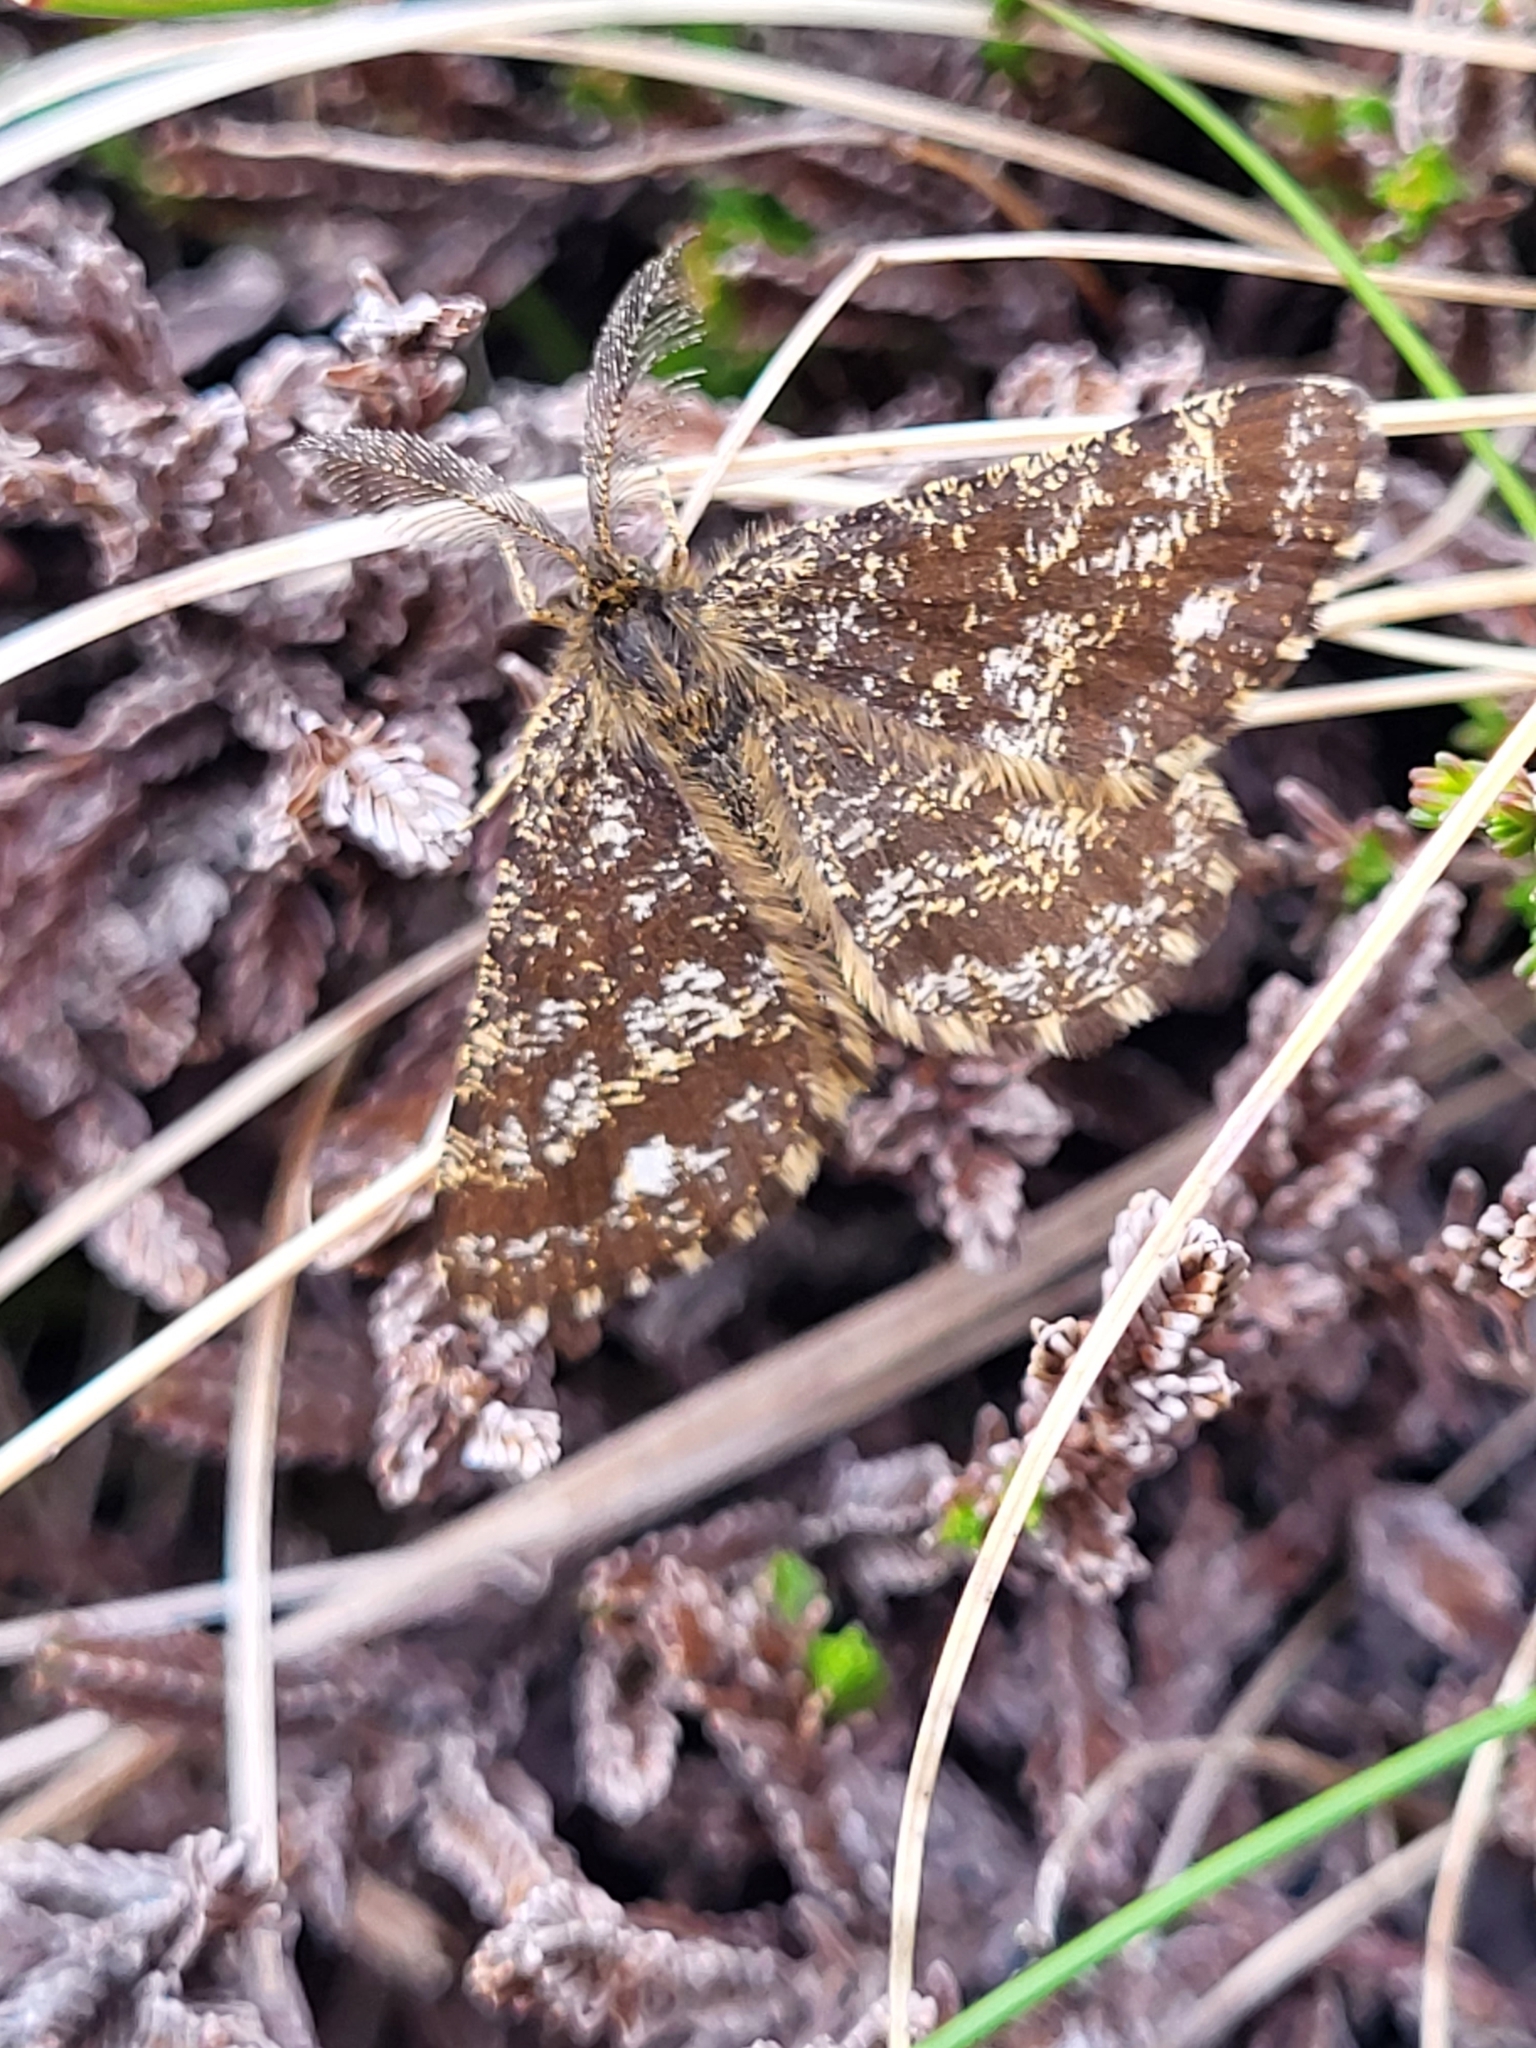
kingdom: Animalia
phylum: Arthropoda
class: Insecta
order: Lepidoptera
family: Geometridae
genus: Ematurga
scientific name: Ematurga atomaria
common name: Common heath
